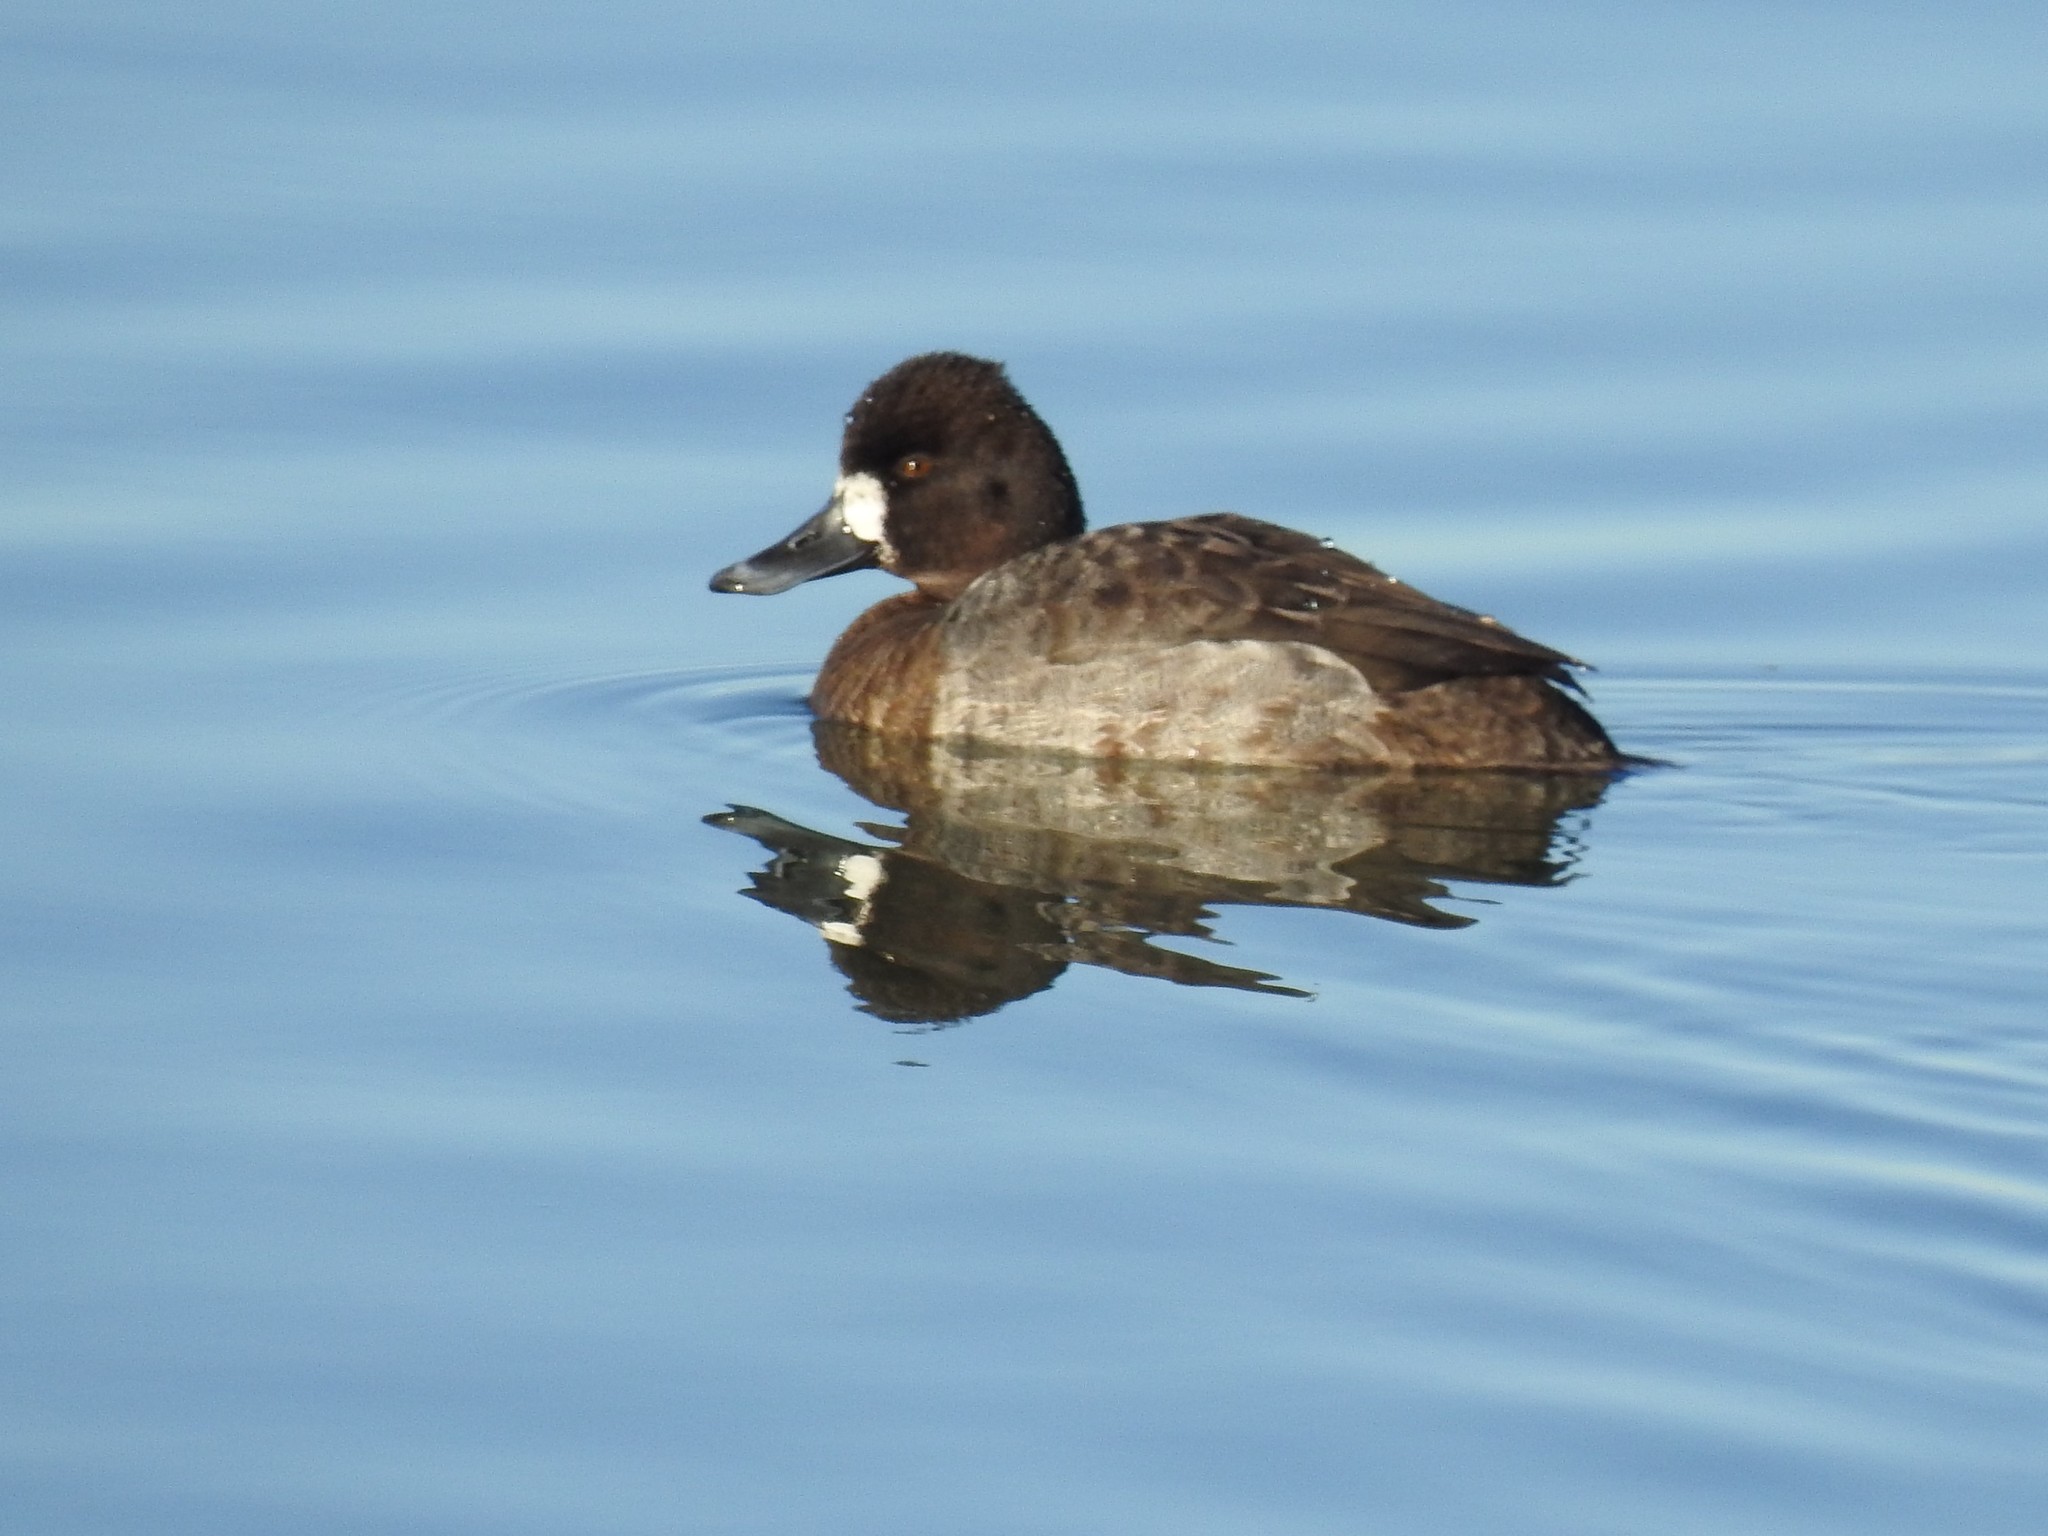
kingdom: Animalia
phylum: Chordata
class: Aves
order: Anseriformes
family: Anatidae
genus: Aythya
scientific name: Aythya affinis
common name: Lesser scaup
